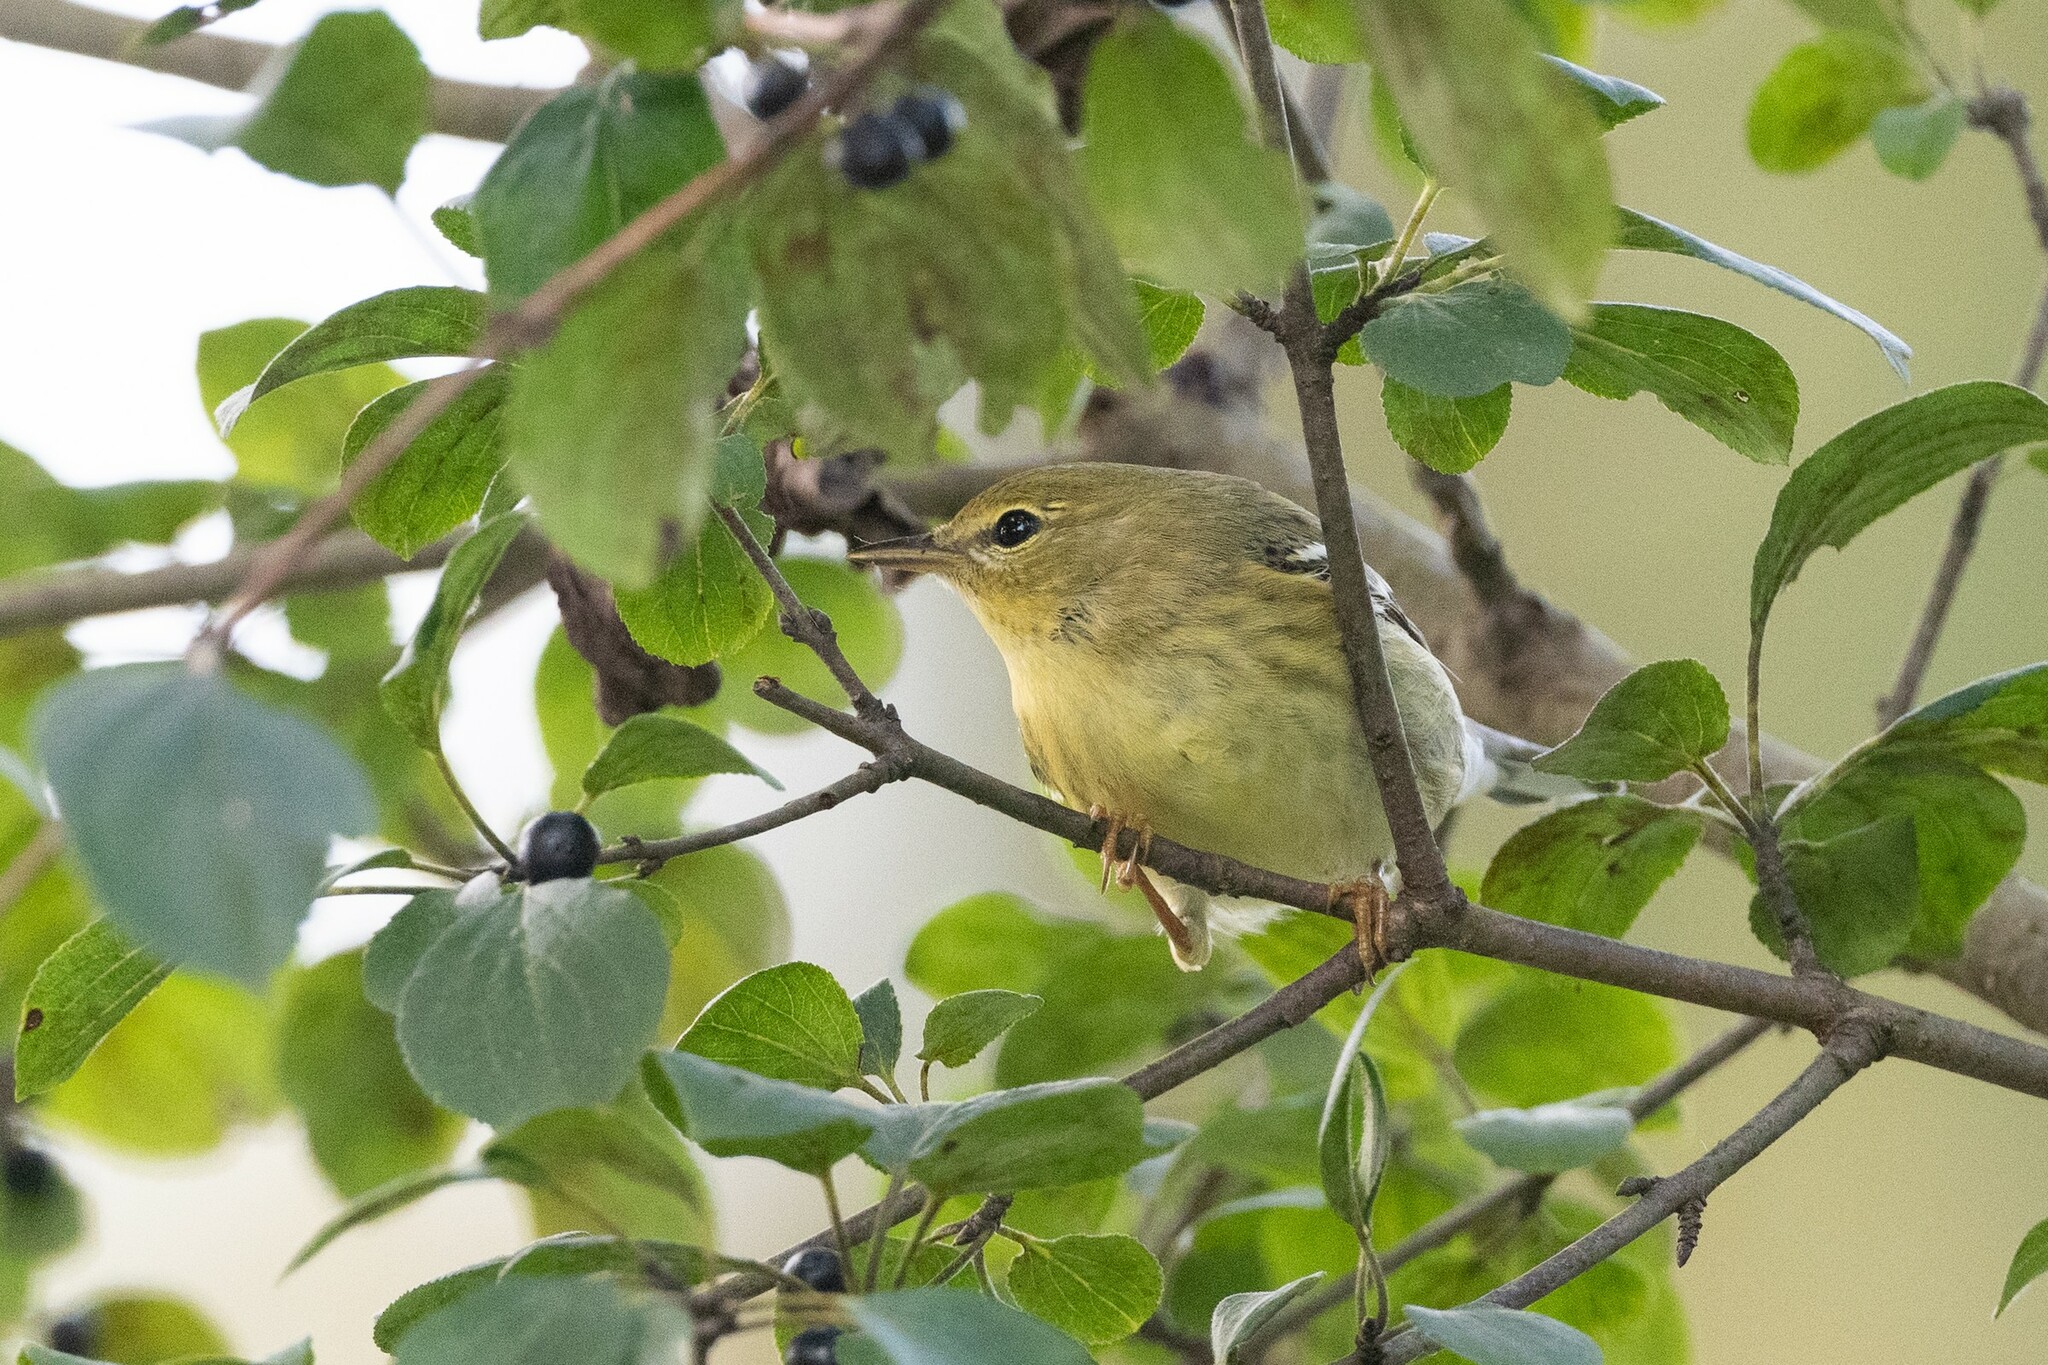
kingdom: Animalia
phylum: Chordata
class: Aves
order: Passeriformes
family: Parulidae
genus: Setophaga
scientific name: Setophaga striata
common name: Blackpoll warbler
